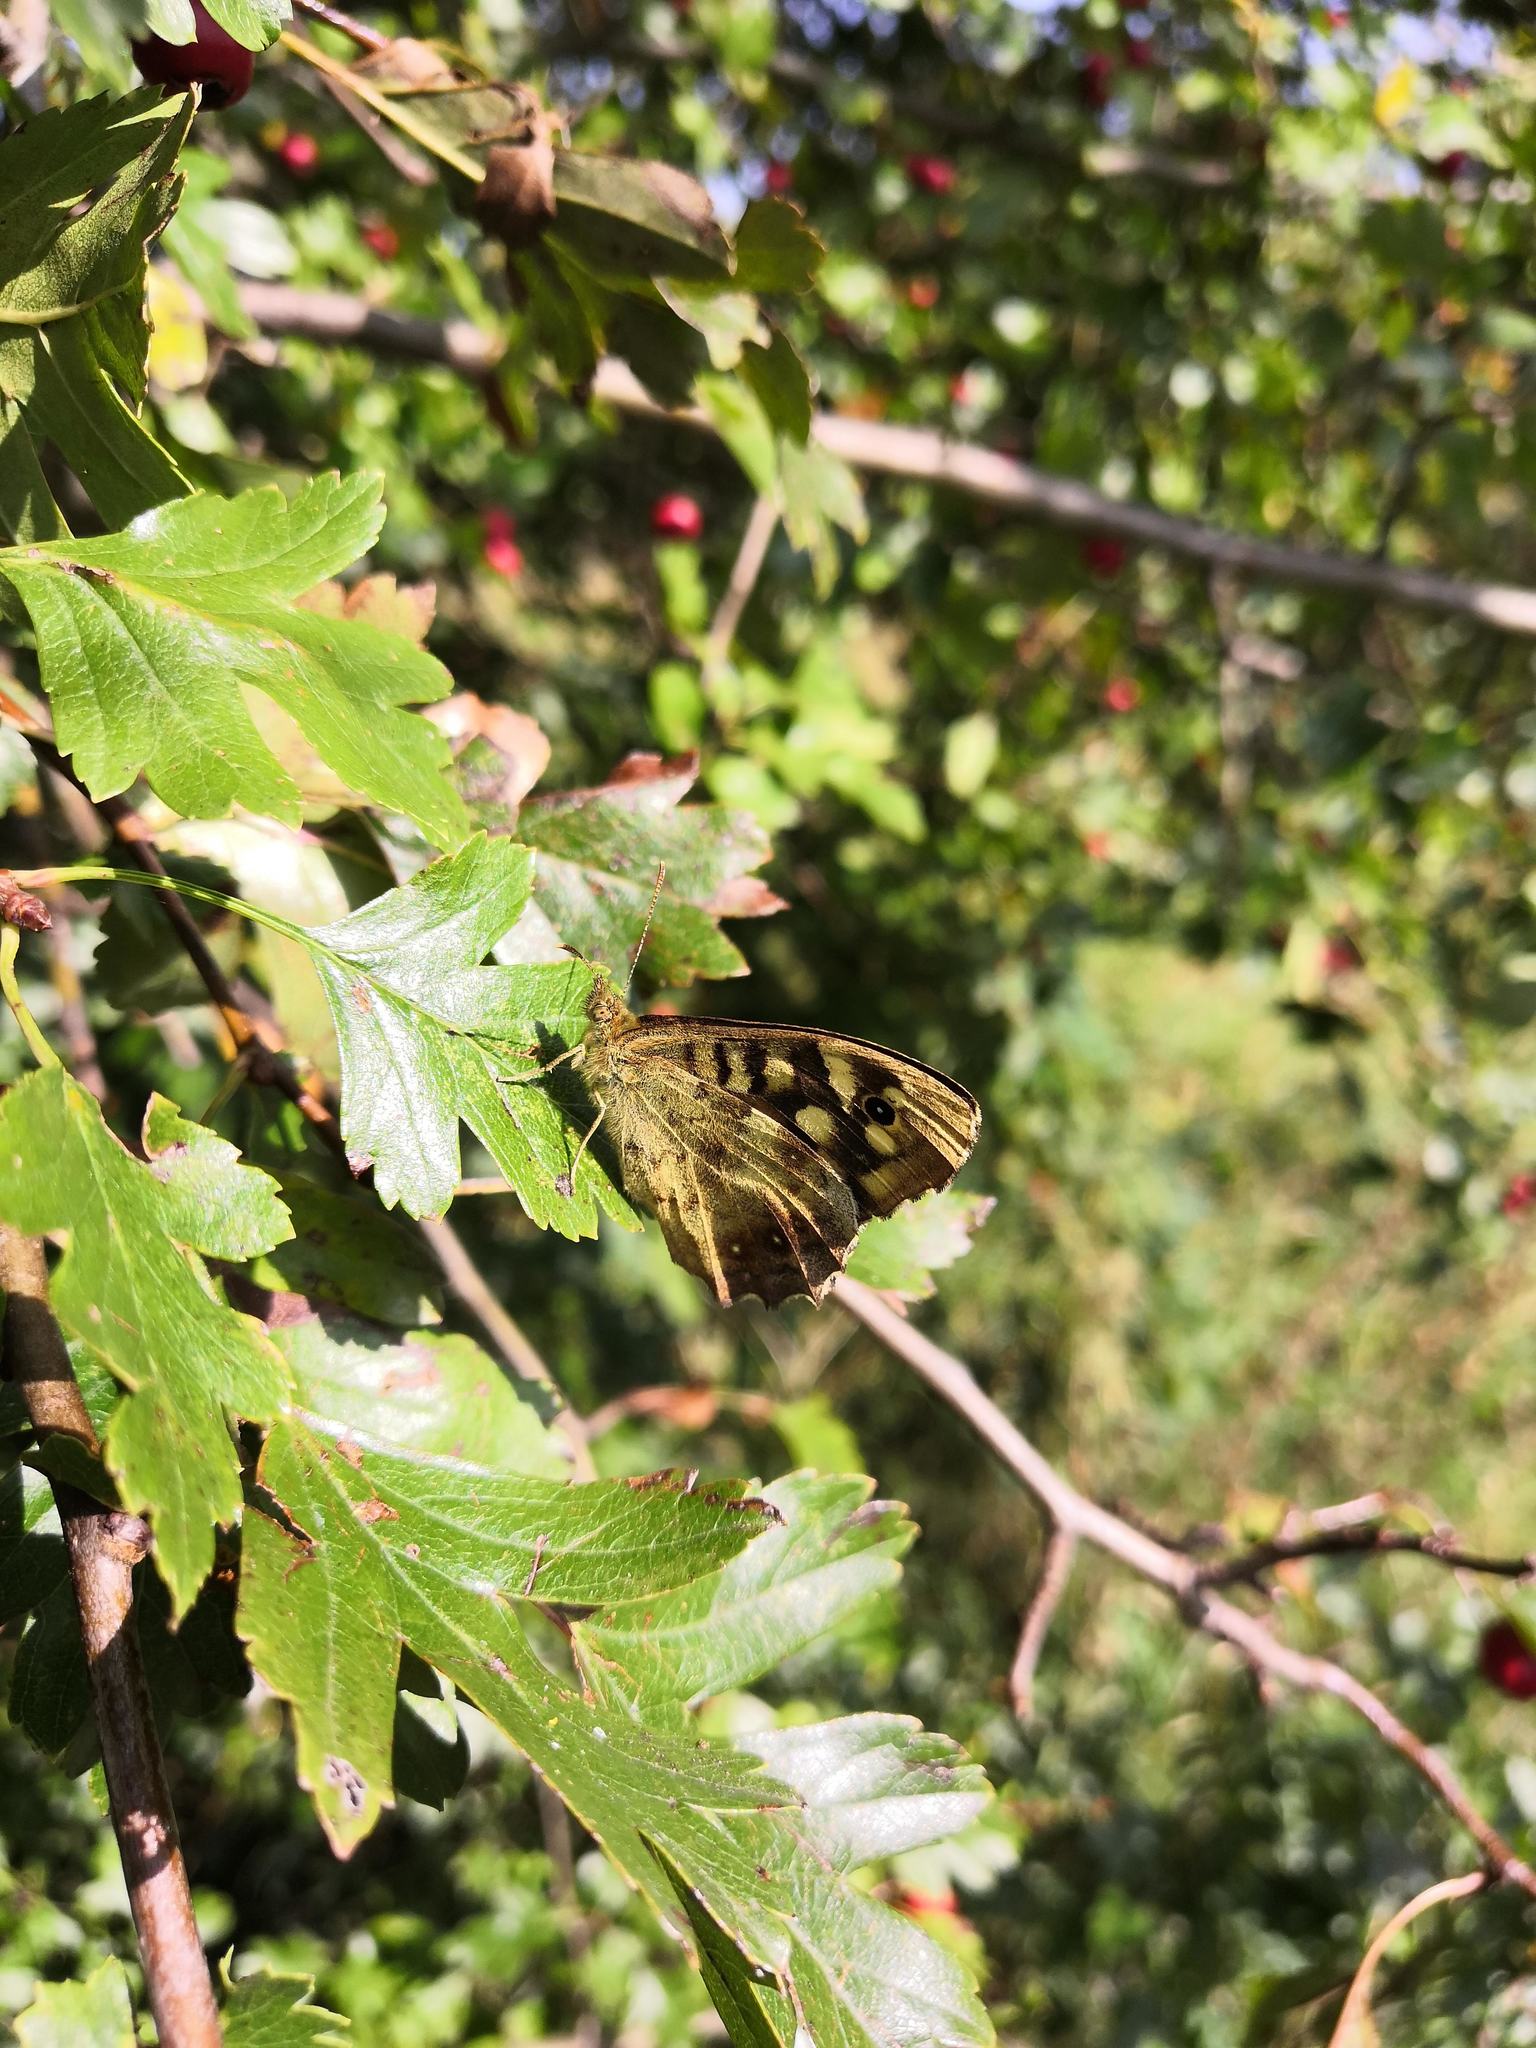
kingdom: Animalia
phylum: Arthropoda
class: Insecta
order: Lepidoptera
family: Nymphalidae
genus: Pararge
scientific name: Pararge aegeria
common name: Speckled wood
